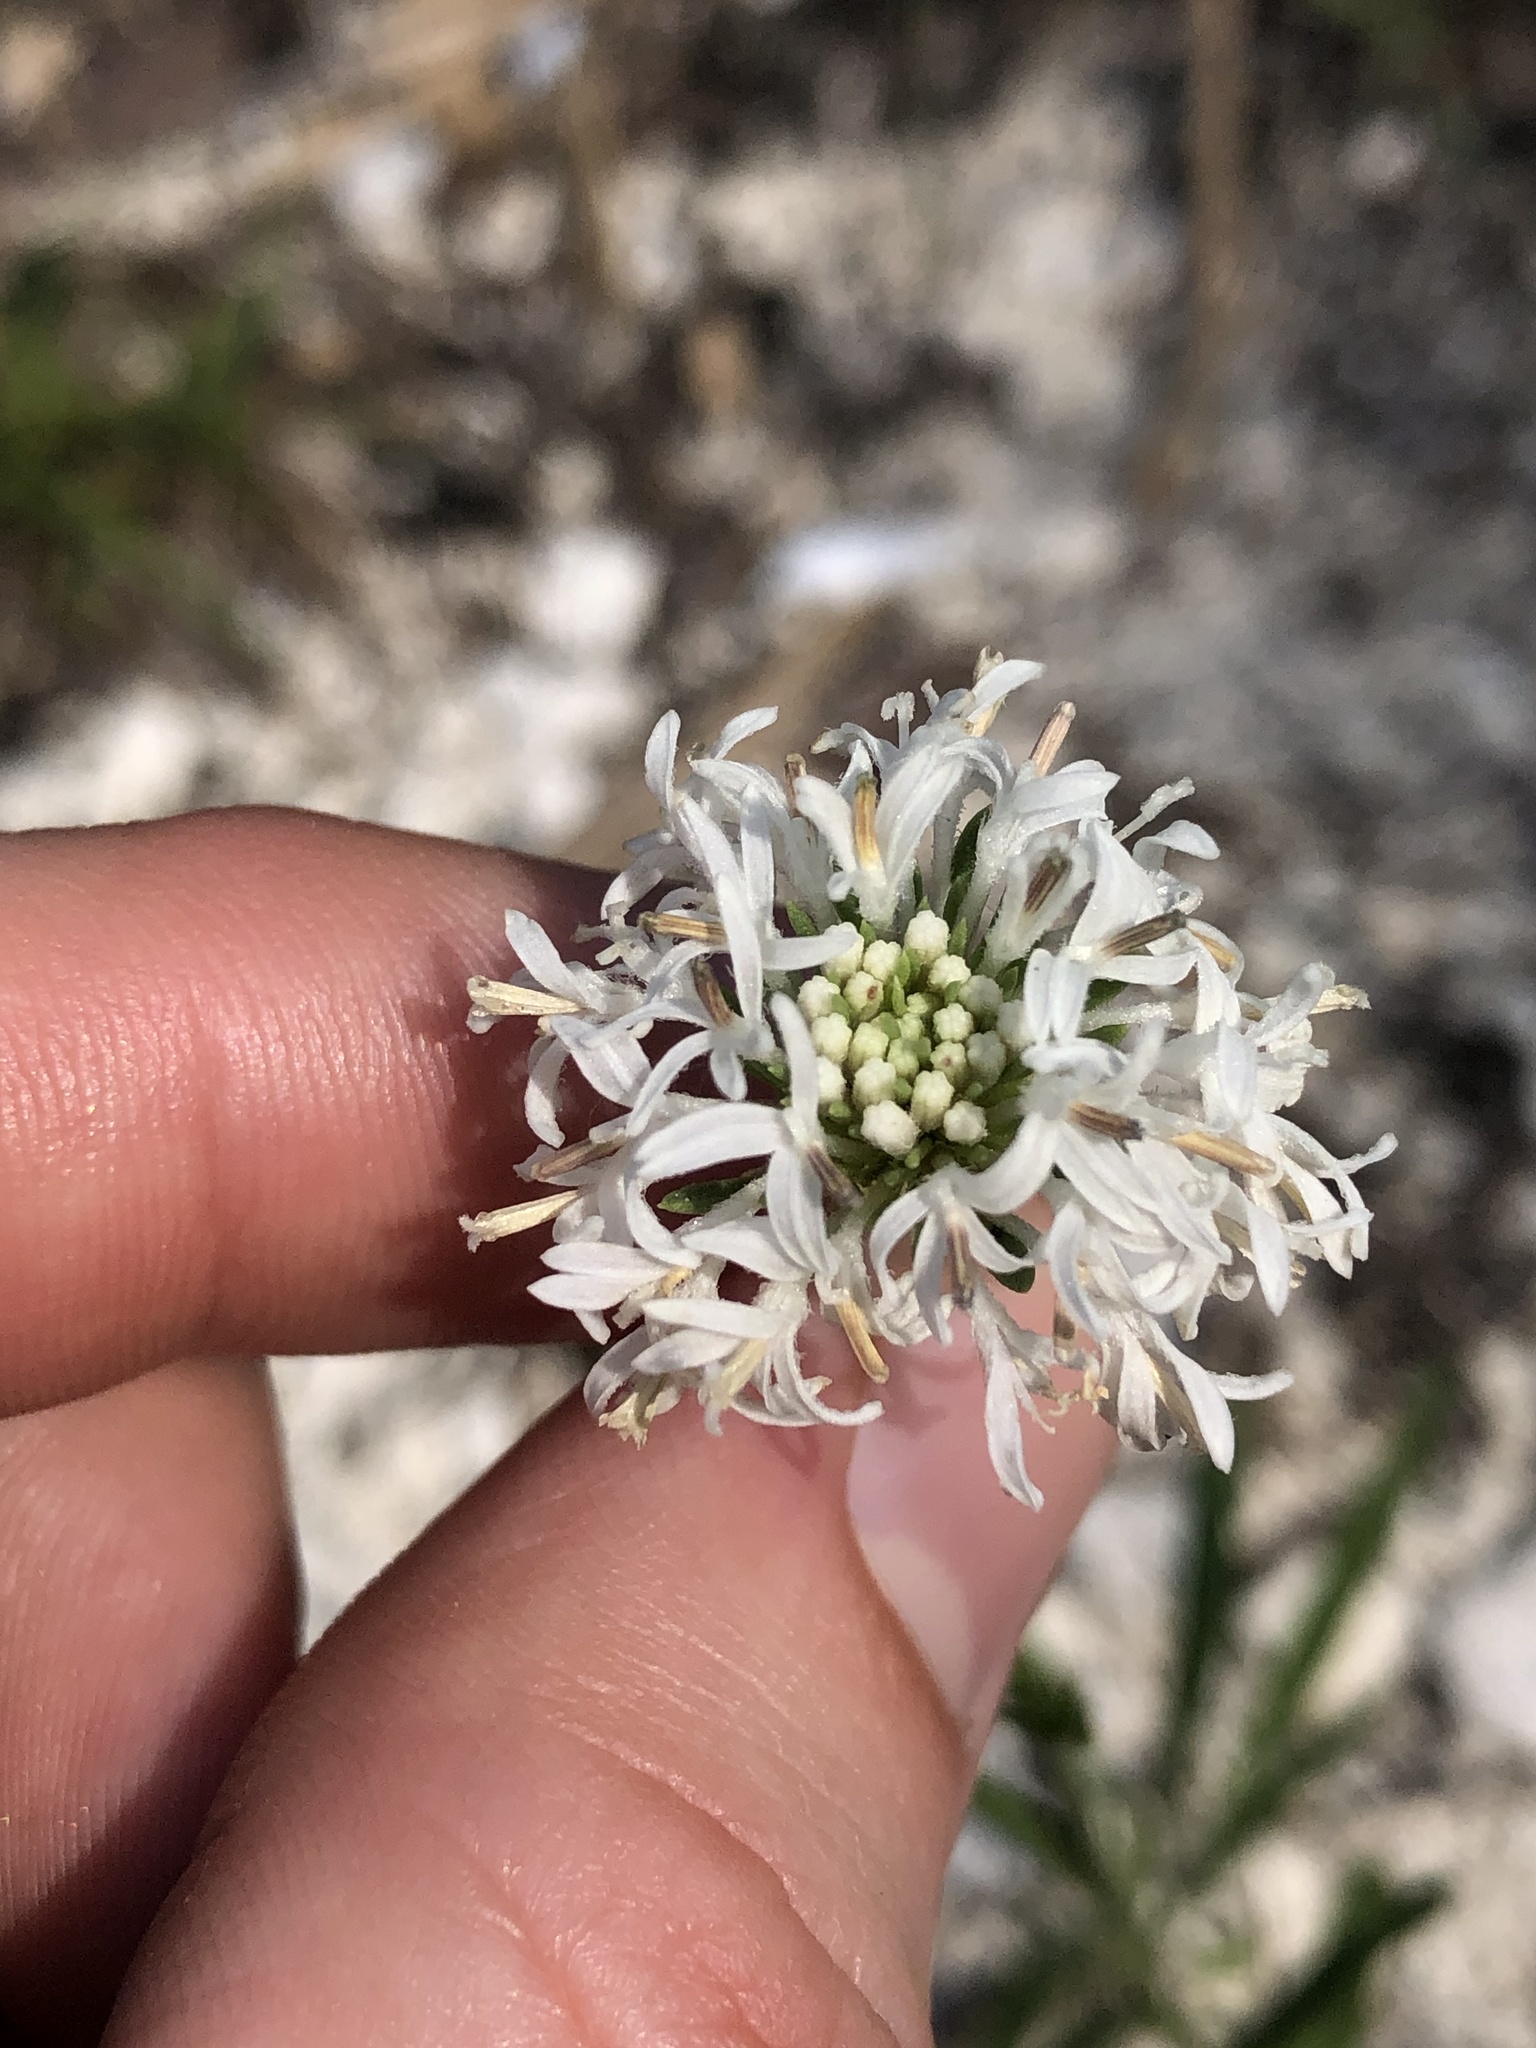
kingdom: Plantae
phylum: Tracheophyta
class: Magnoliopsida
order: Asterales
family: Asteraceae
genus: Marshallia
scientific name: Marshallia caespitosa
